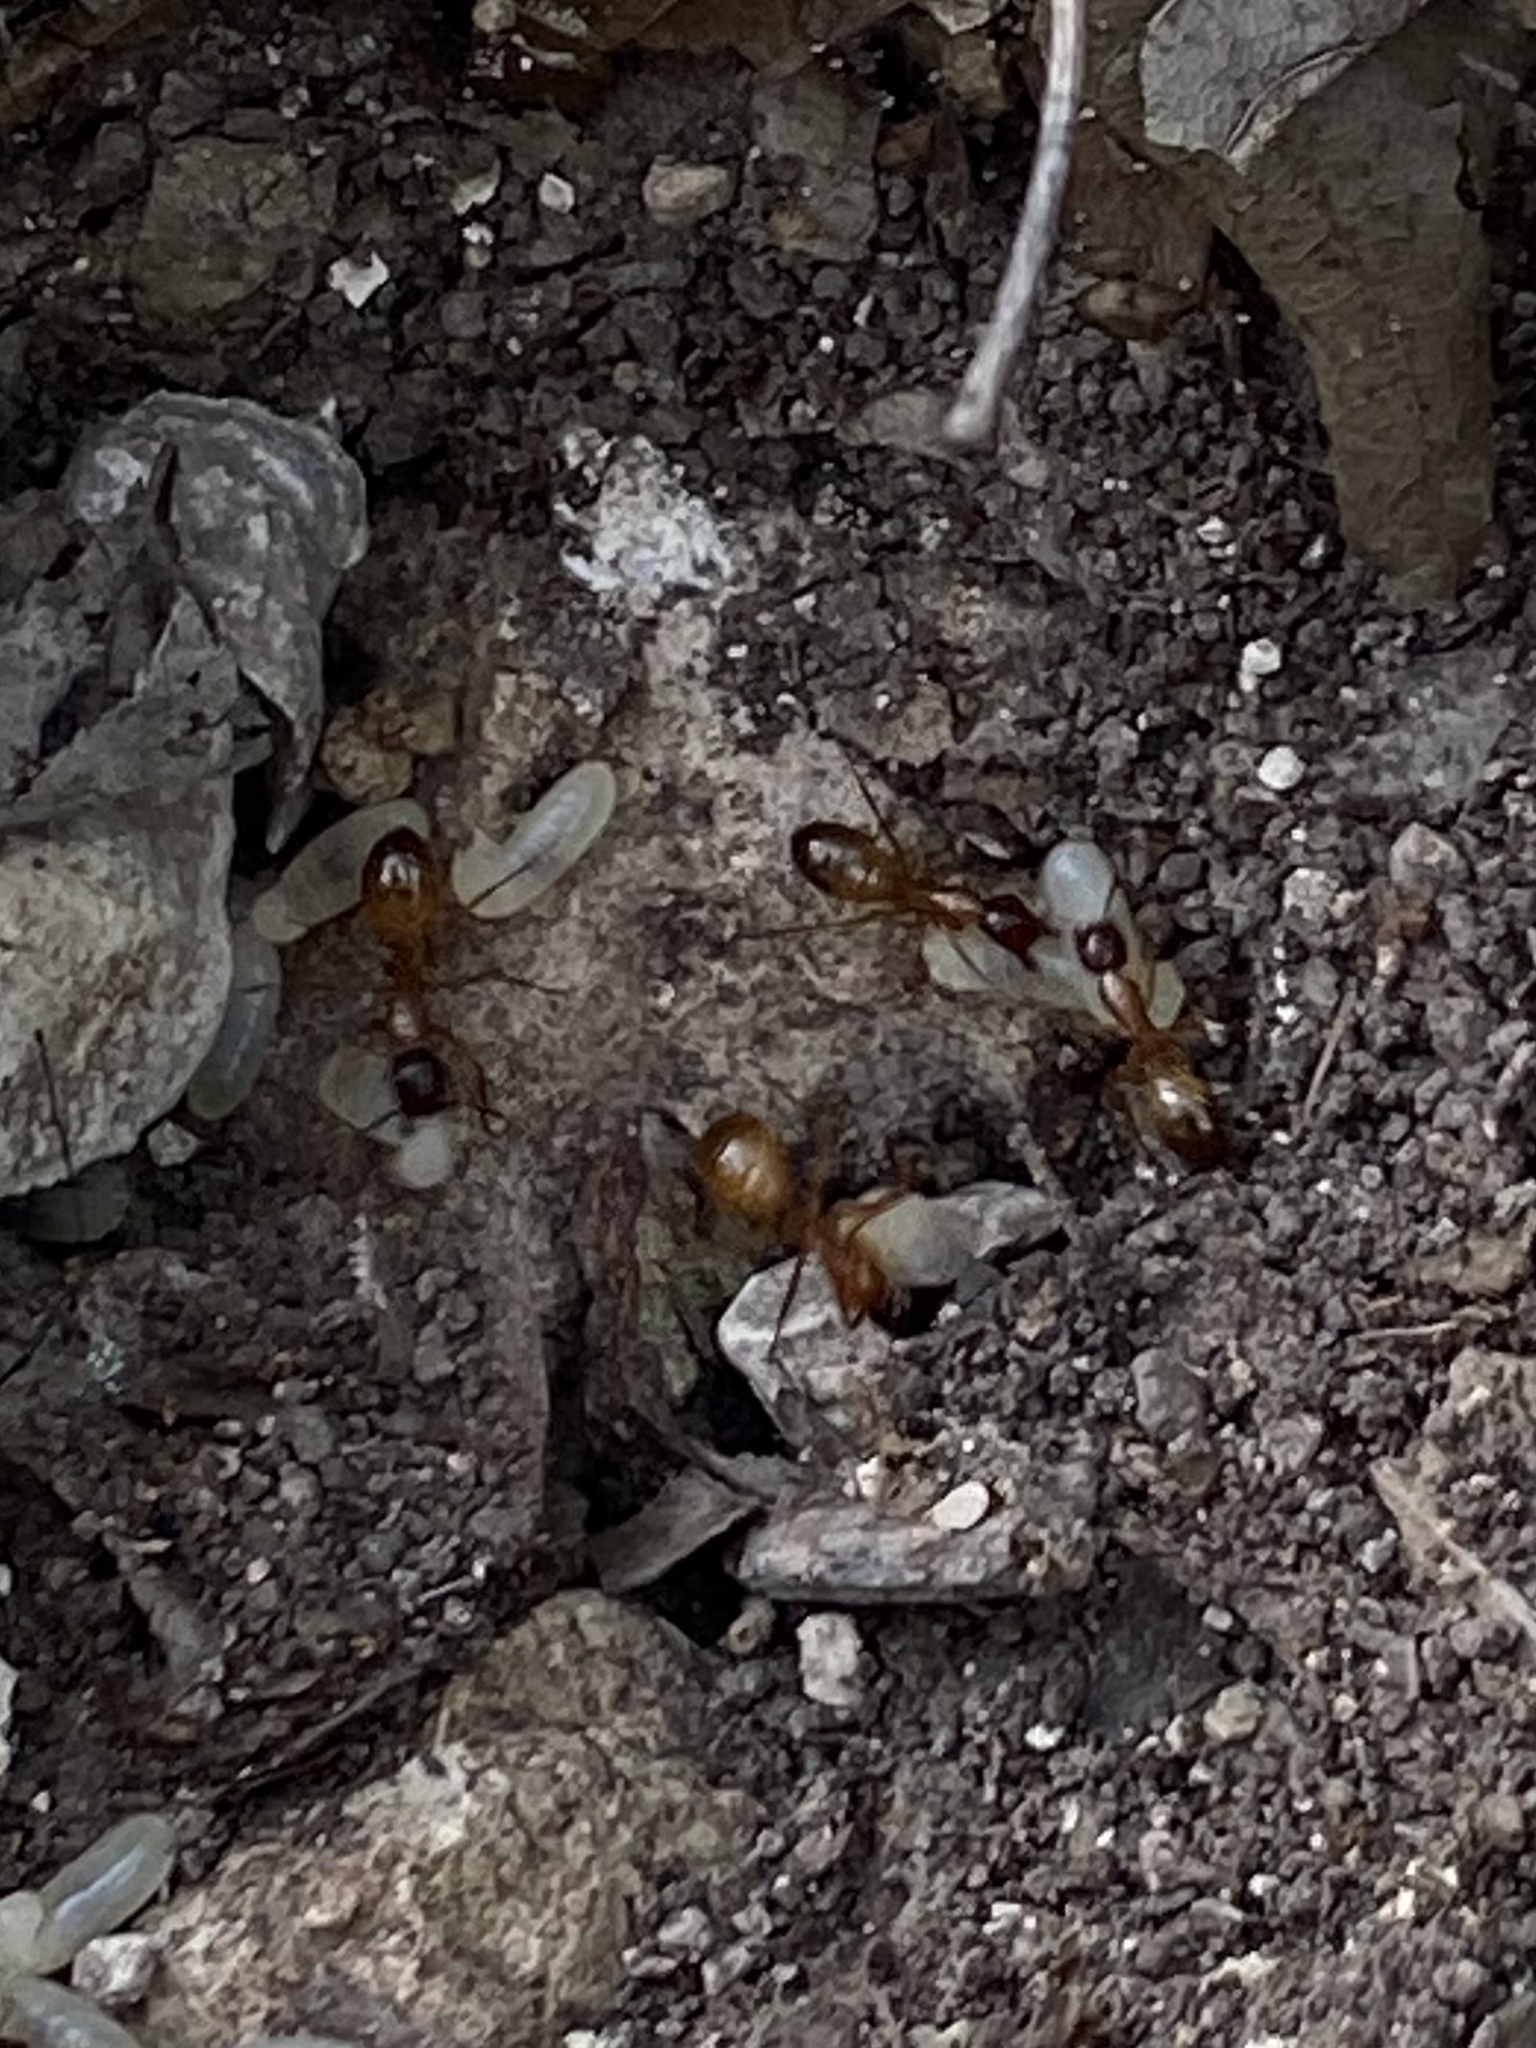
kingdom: Animalia
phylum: Arthropoda
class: Insecta
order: Hymenoptera
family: Formicidae
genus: Camponotus
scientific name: Camponotus sansabeanus
